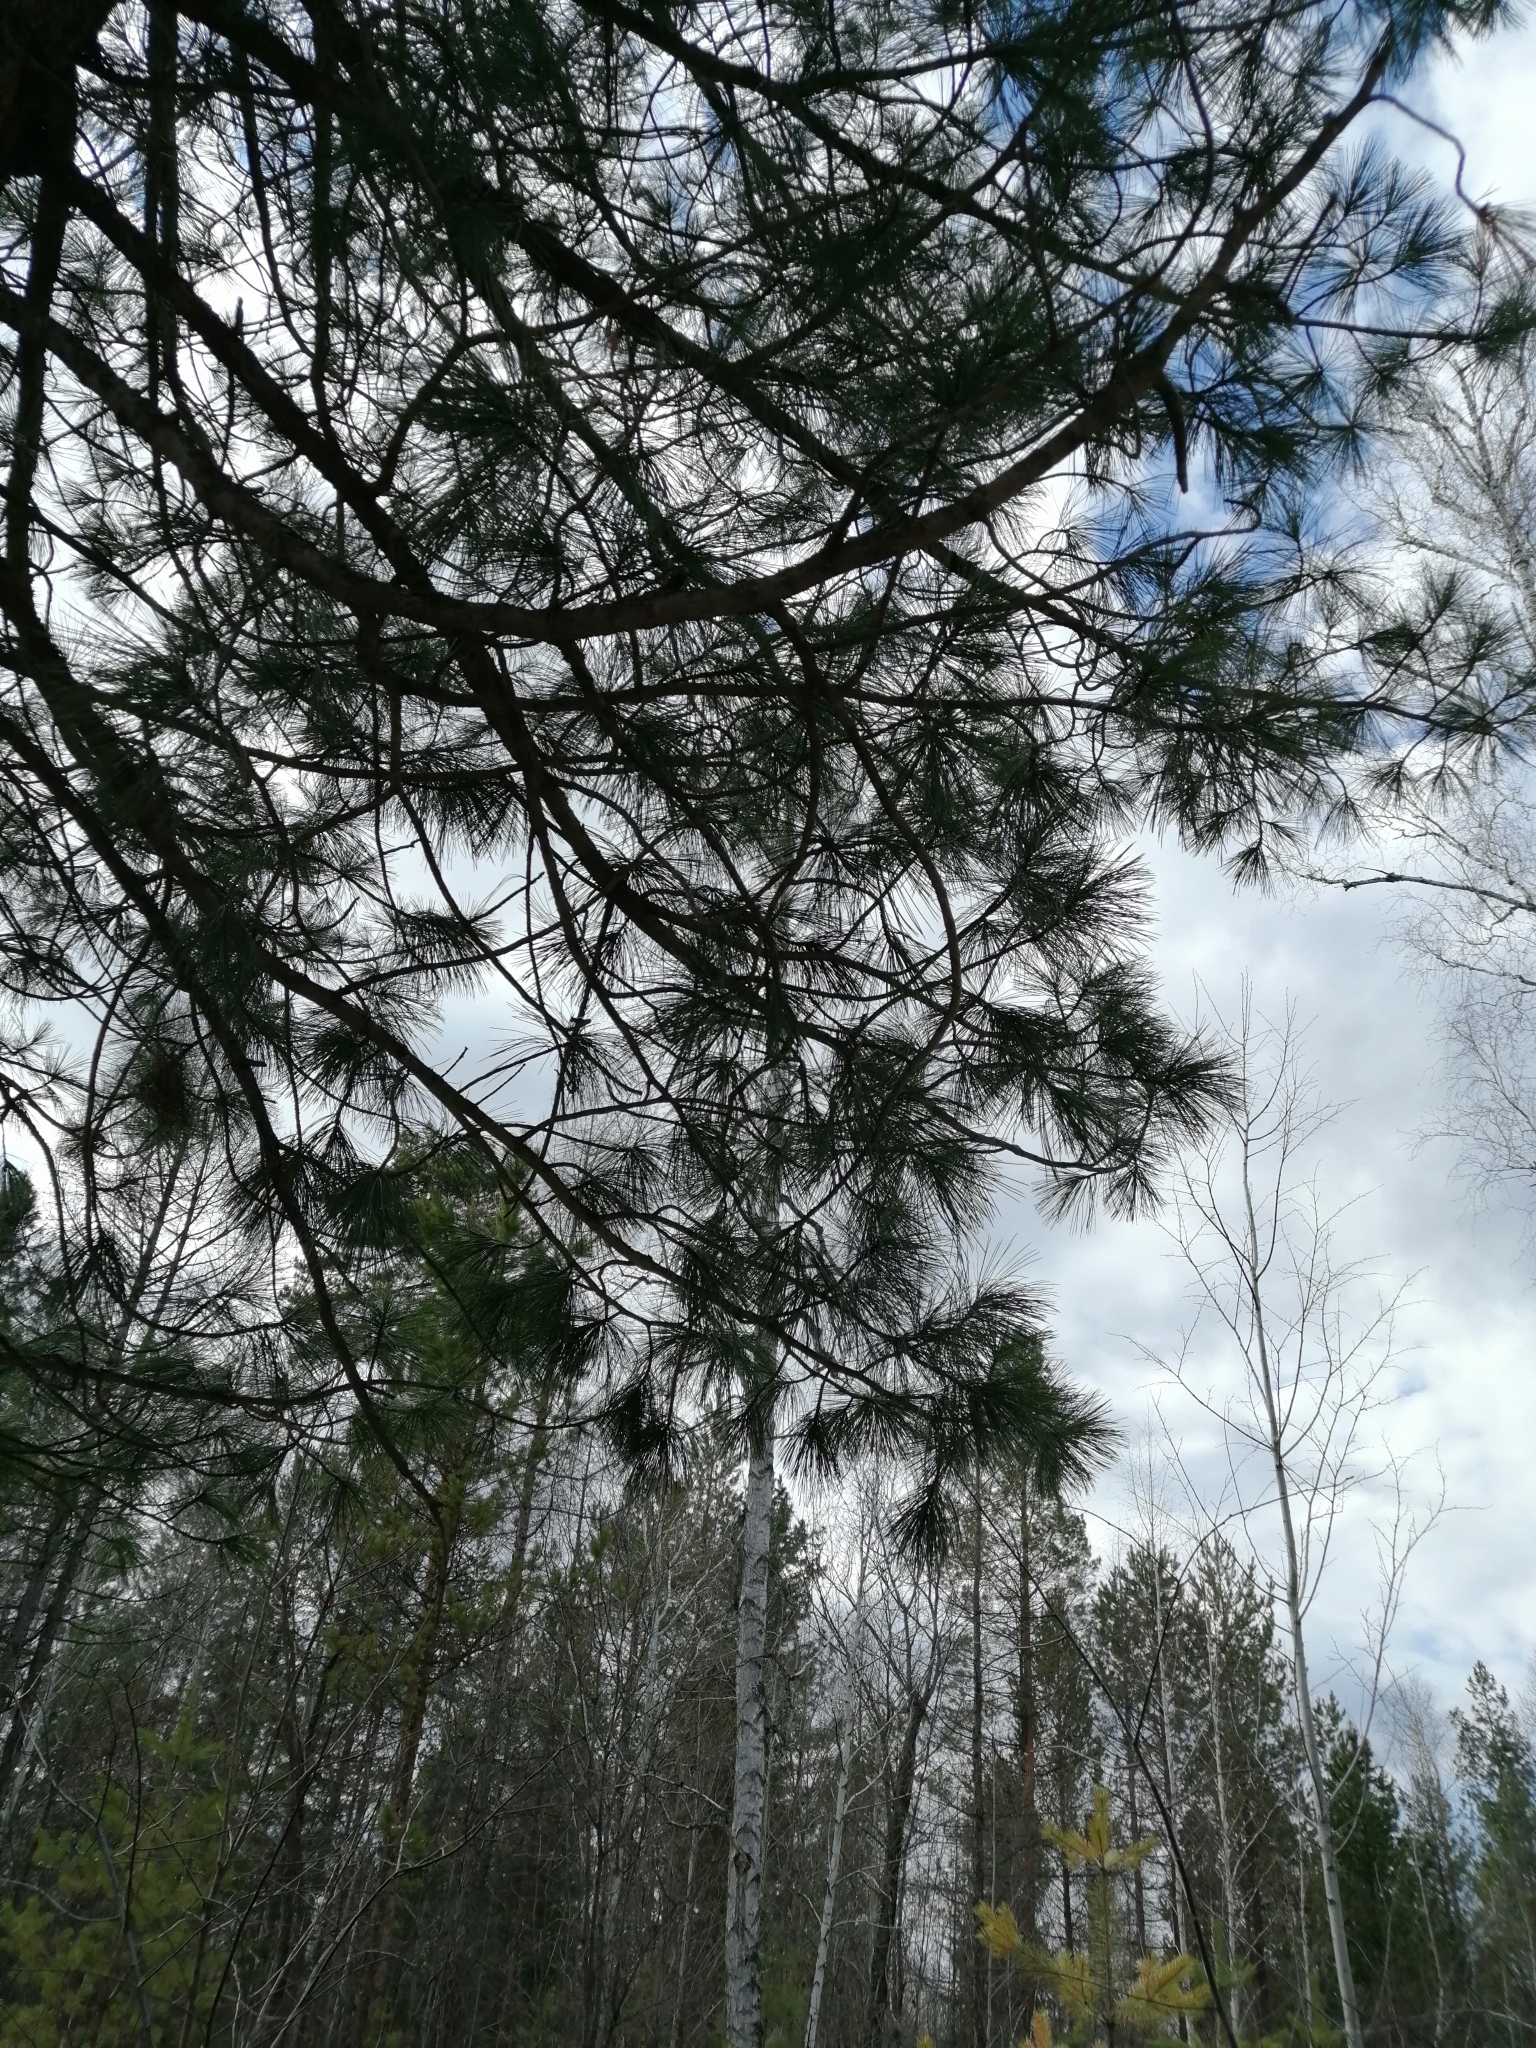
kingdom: Plantae
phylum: Tracheophyta
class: Pinopsida
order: Pinales
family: Pinaceae
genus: Pinus
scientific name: Pinus sibirica
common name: Siberian pine
